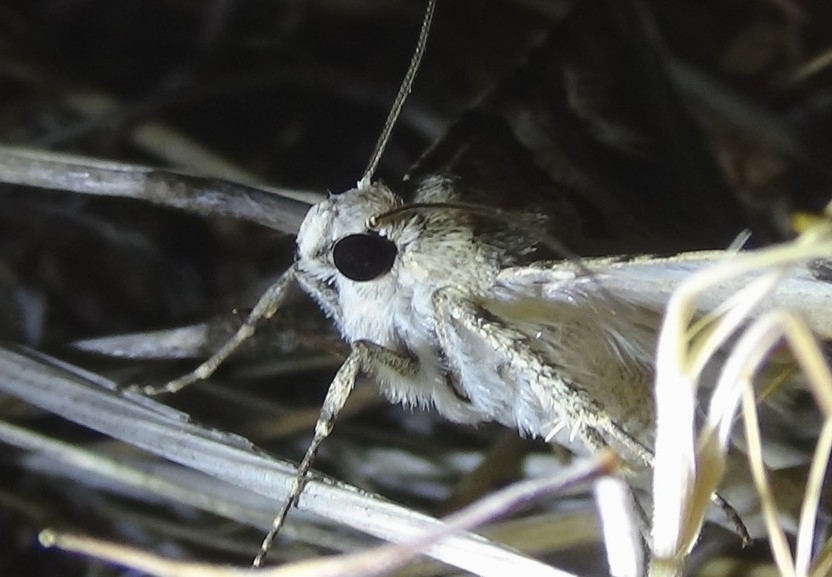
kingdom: Animalia
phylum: Arthropoda
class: Insecta
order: Lepidoptera
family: Erebidae
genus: Drasteria
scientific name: Drasteria howlandii
